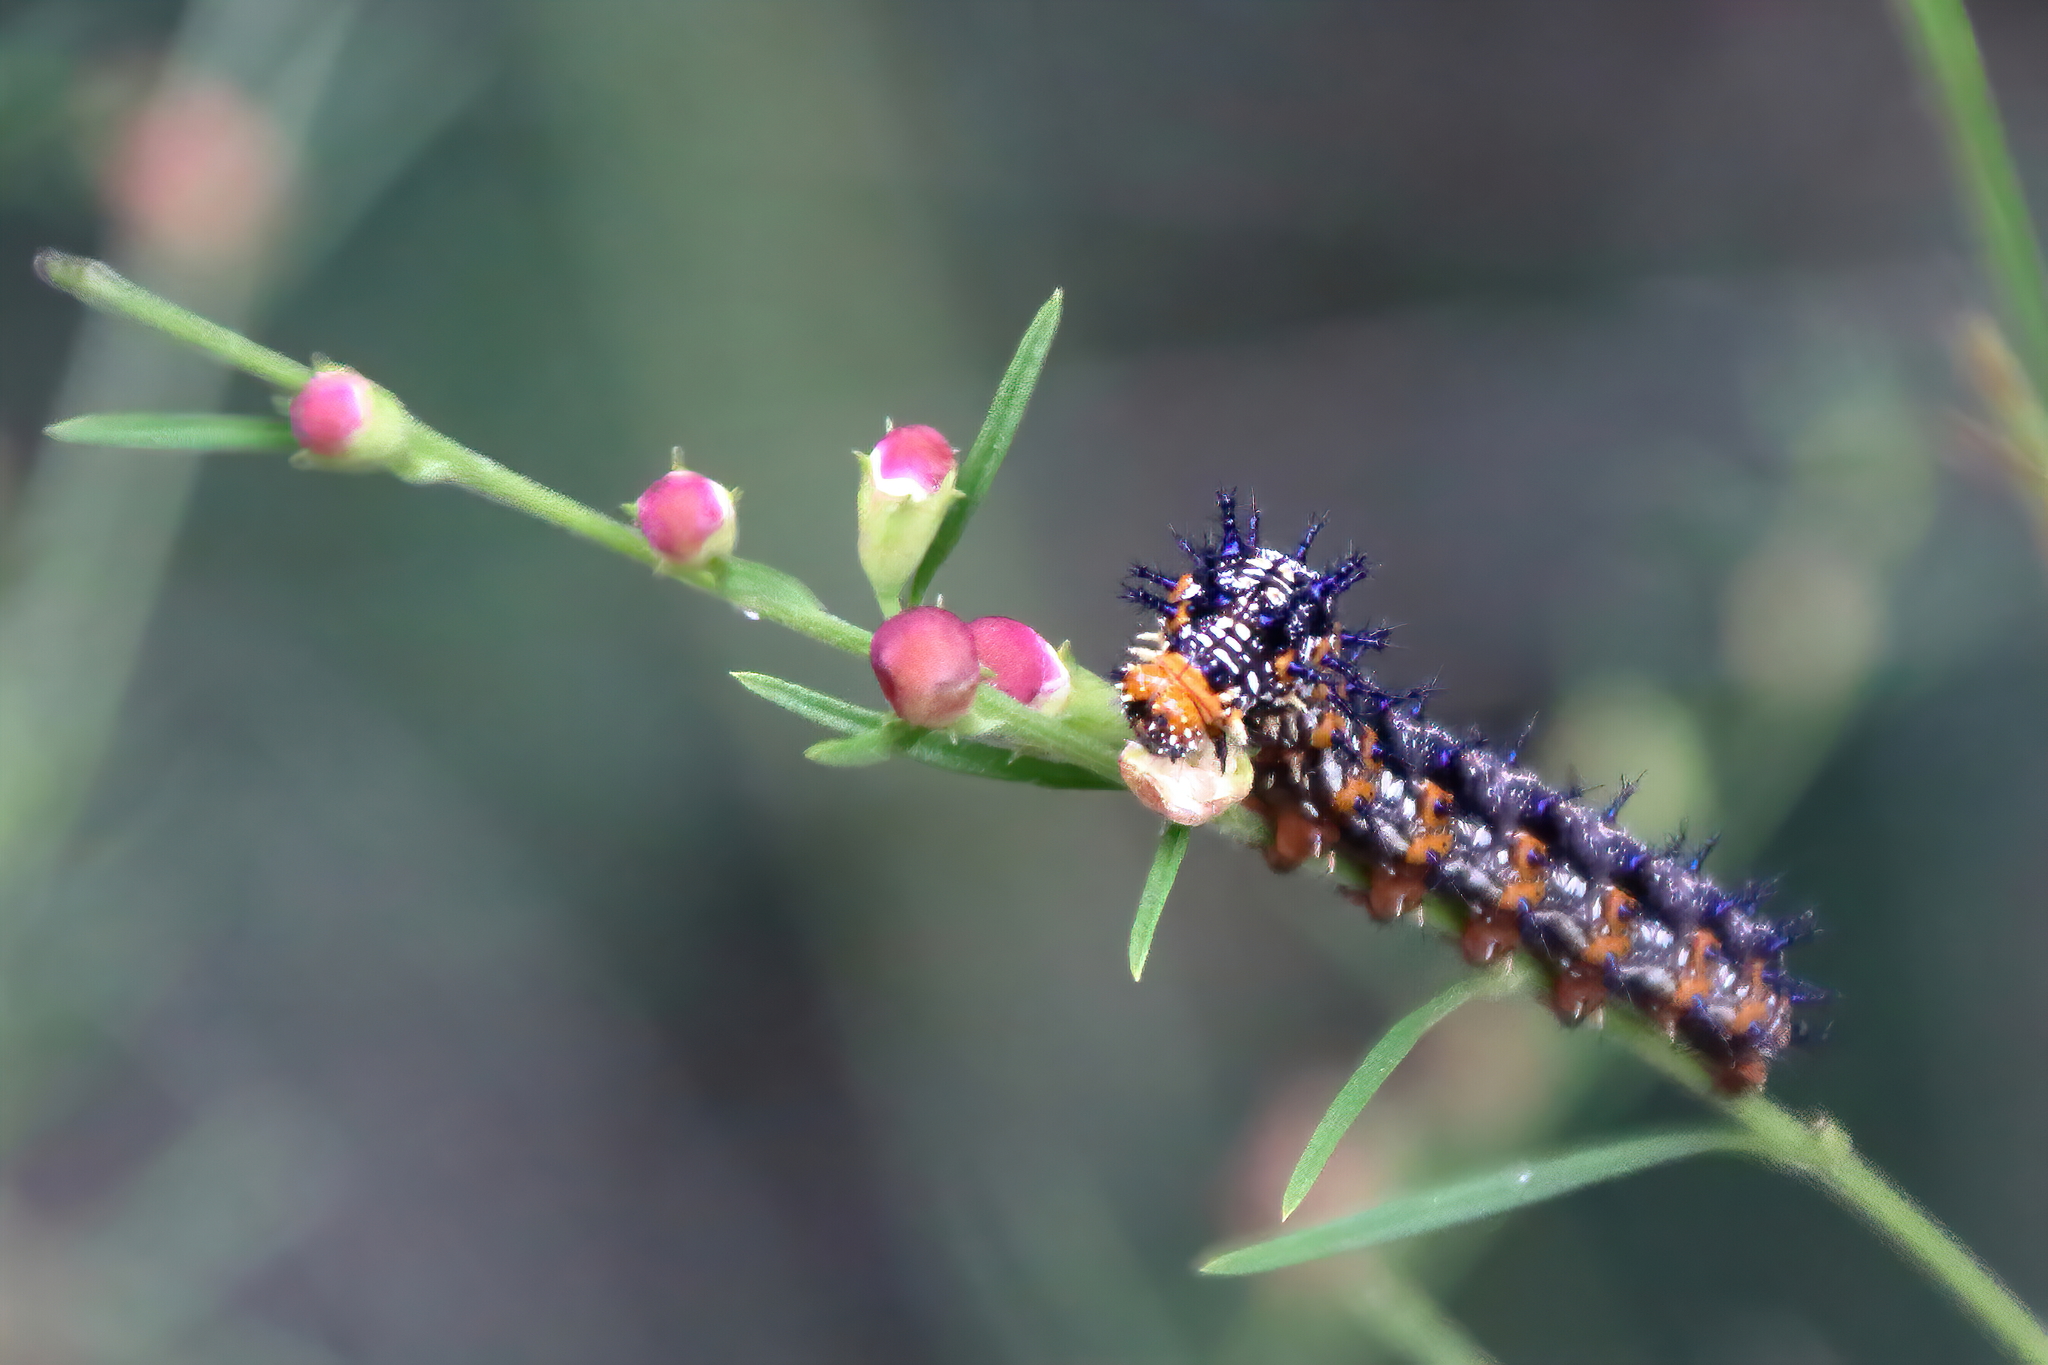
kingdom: Animalia
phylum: Arthropoda
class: Insecta
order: Lepidoptera
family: Nymphalidae
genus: Junonia
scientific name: Junonia coenia
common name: Common buckeye
